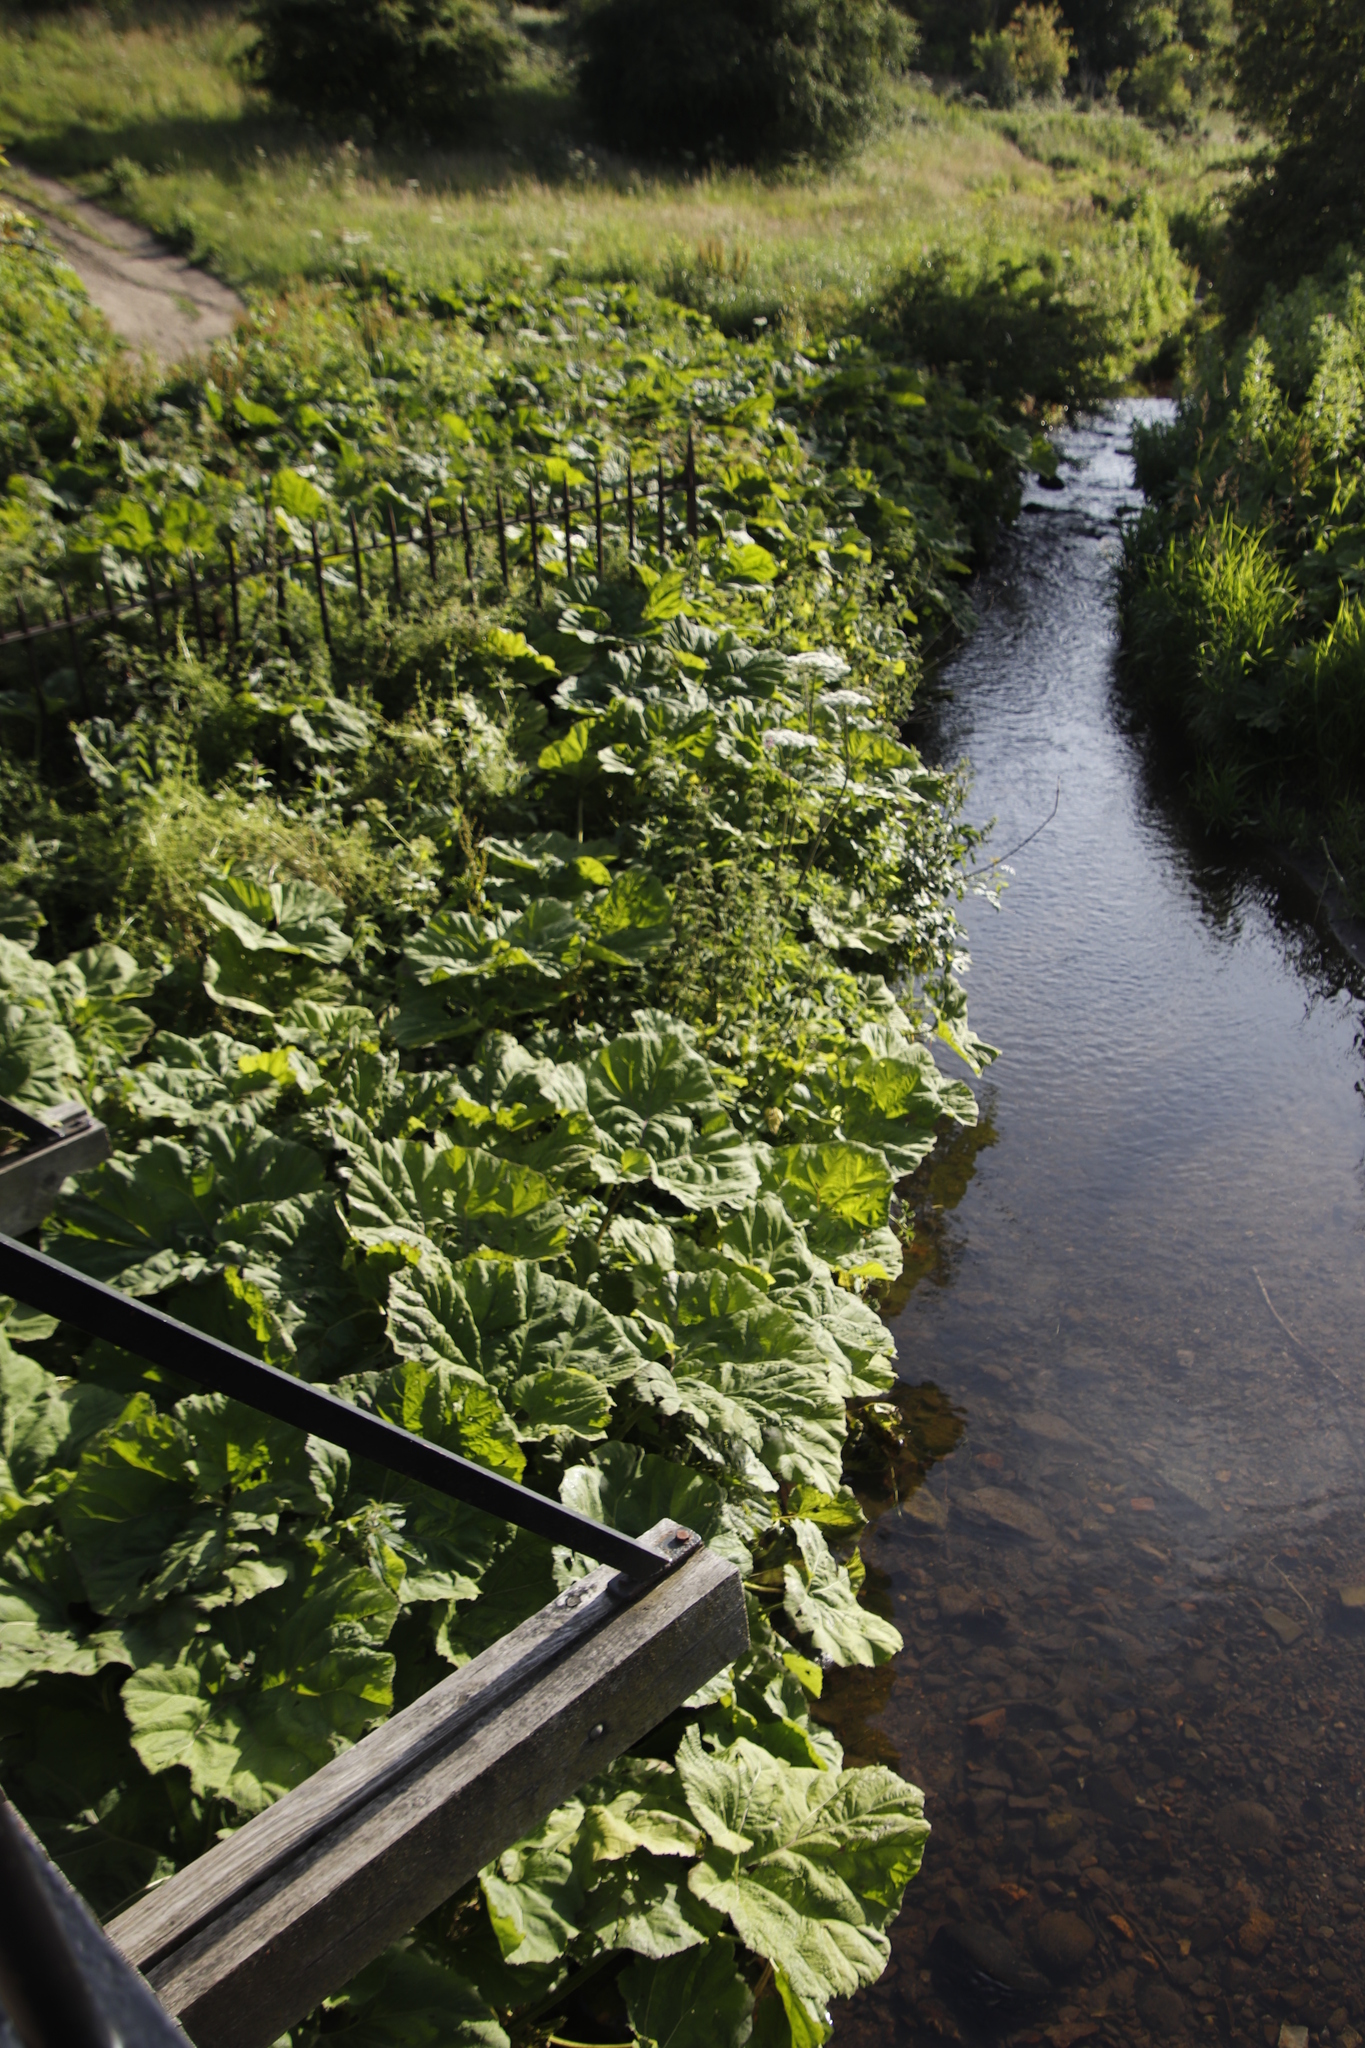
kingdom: Plantae
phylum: Tracheophyta
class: Magnoliopsida
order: Asterales
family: Asteraceae
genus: Petasites
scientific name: Petasites hybridus
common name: Butterbur
